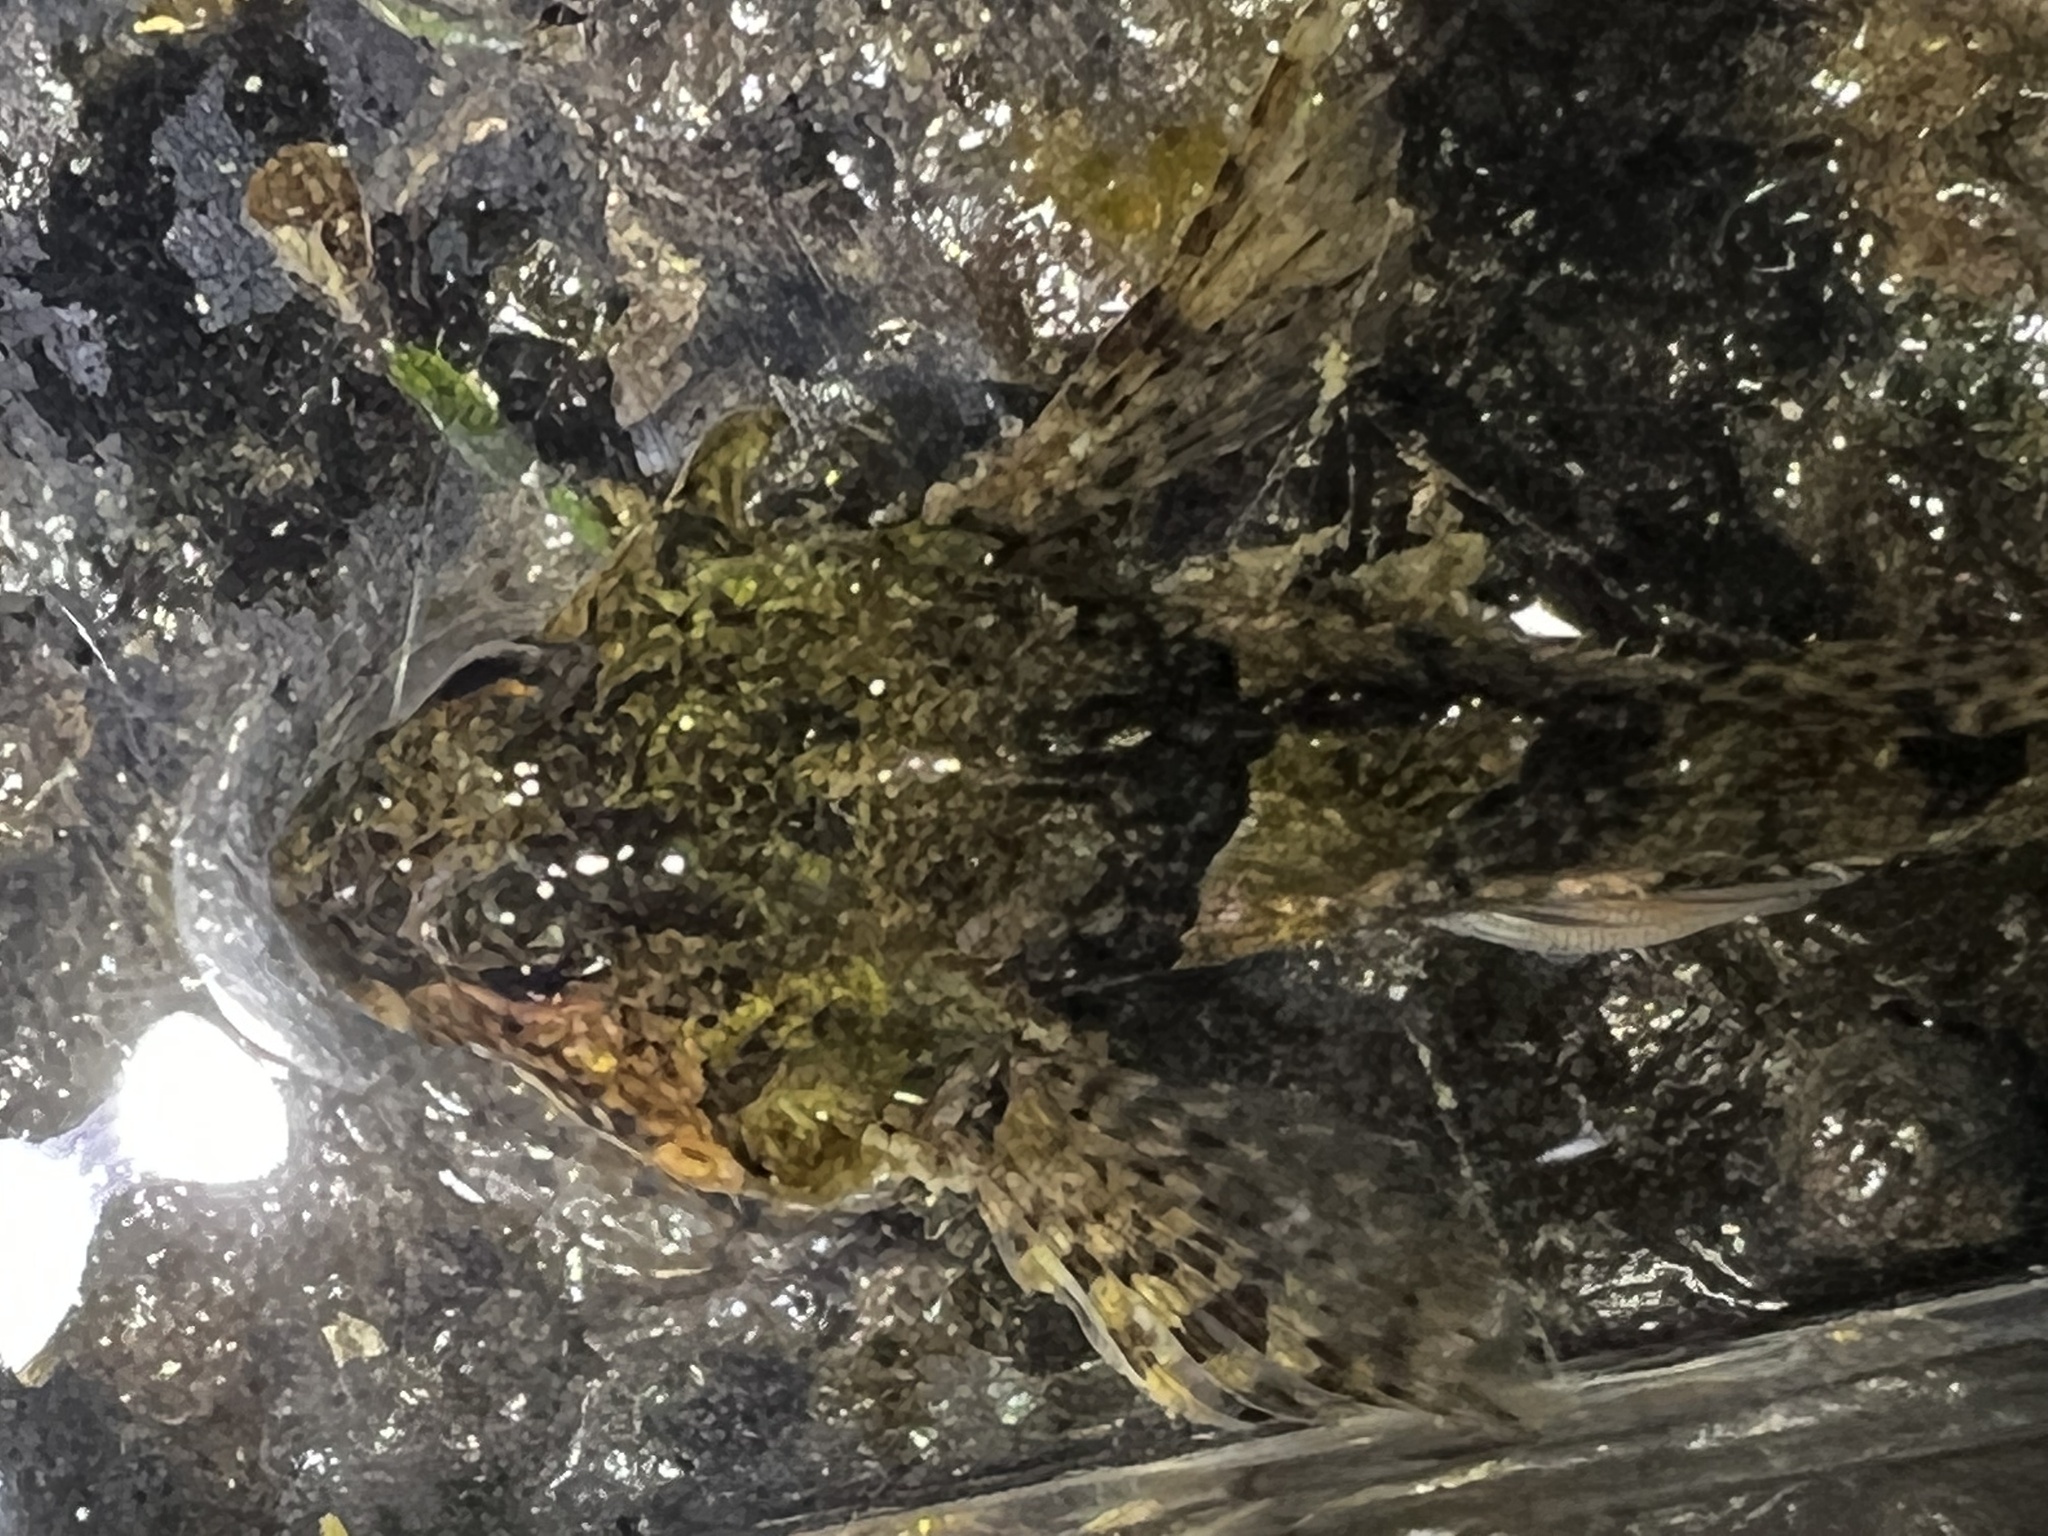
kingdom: Animalia
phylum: Chordata
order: Scorpaeniformes
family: Cottidae
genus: Oligocottus
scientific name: Oligocottus maculosus
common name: Tidepool sculpin
